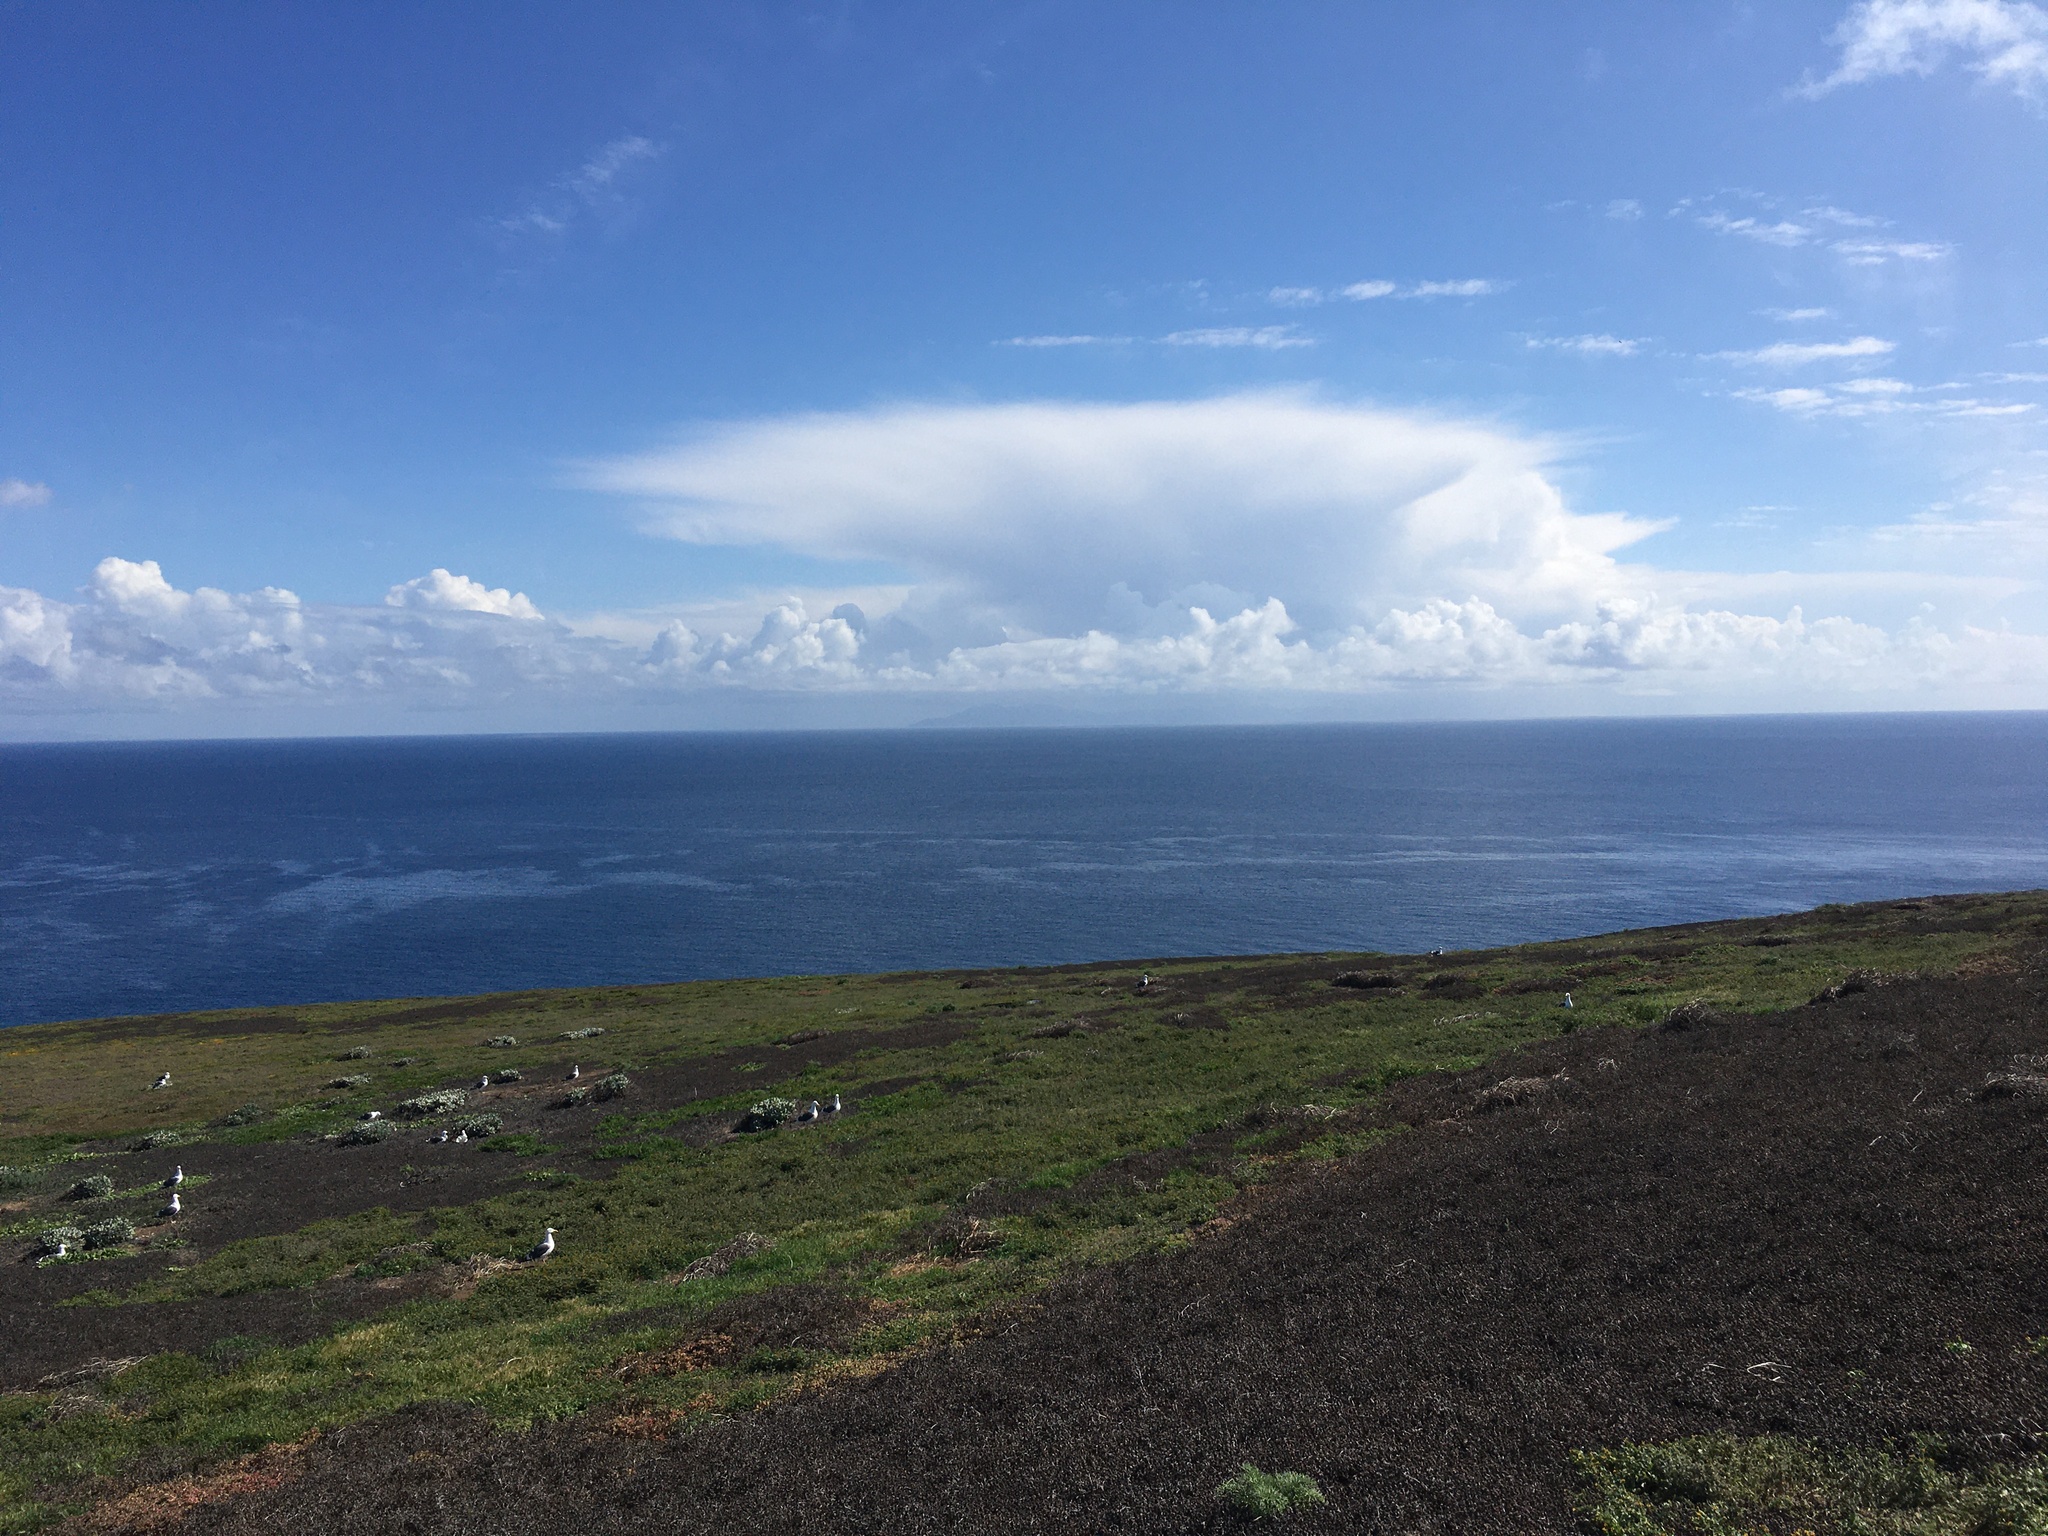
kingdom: Animalia
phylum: Chordata
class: Aves
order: Charadriiformes
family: Laridae
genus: Larus
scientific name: Larus occidentalis
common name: Western gull
